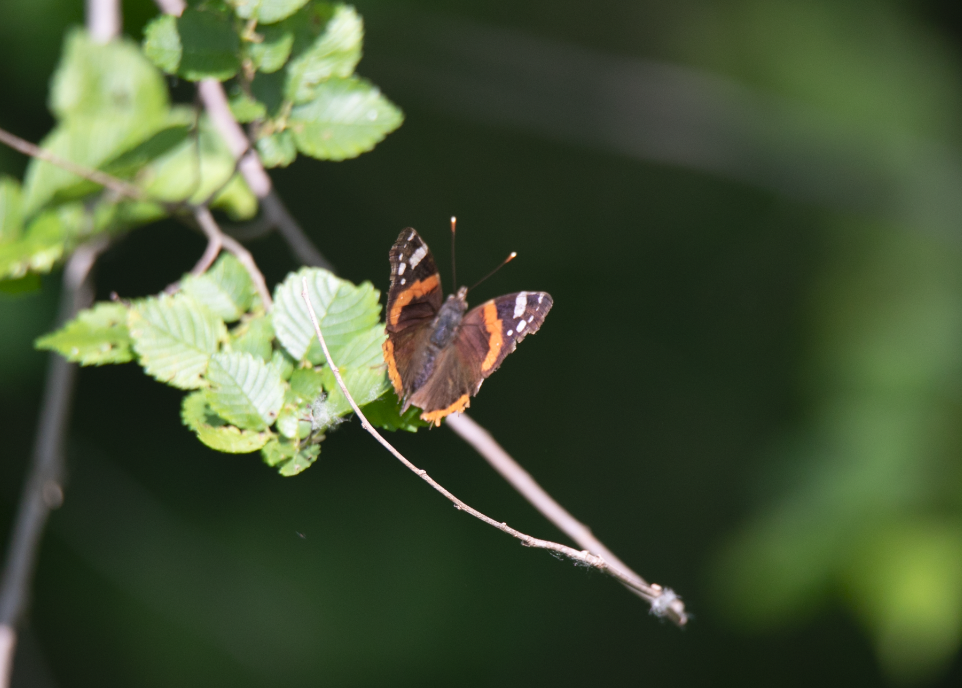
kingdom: Animalia
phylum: Arthropoda
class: Insecta
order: Lepidoptera
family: Nymphalidae
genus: Vanessa
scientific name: Vanessa atalanta
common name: Red admiral
